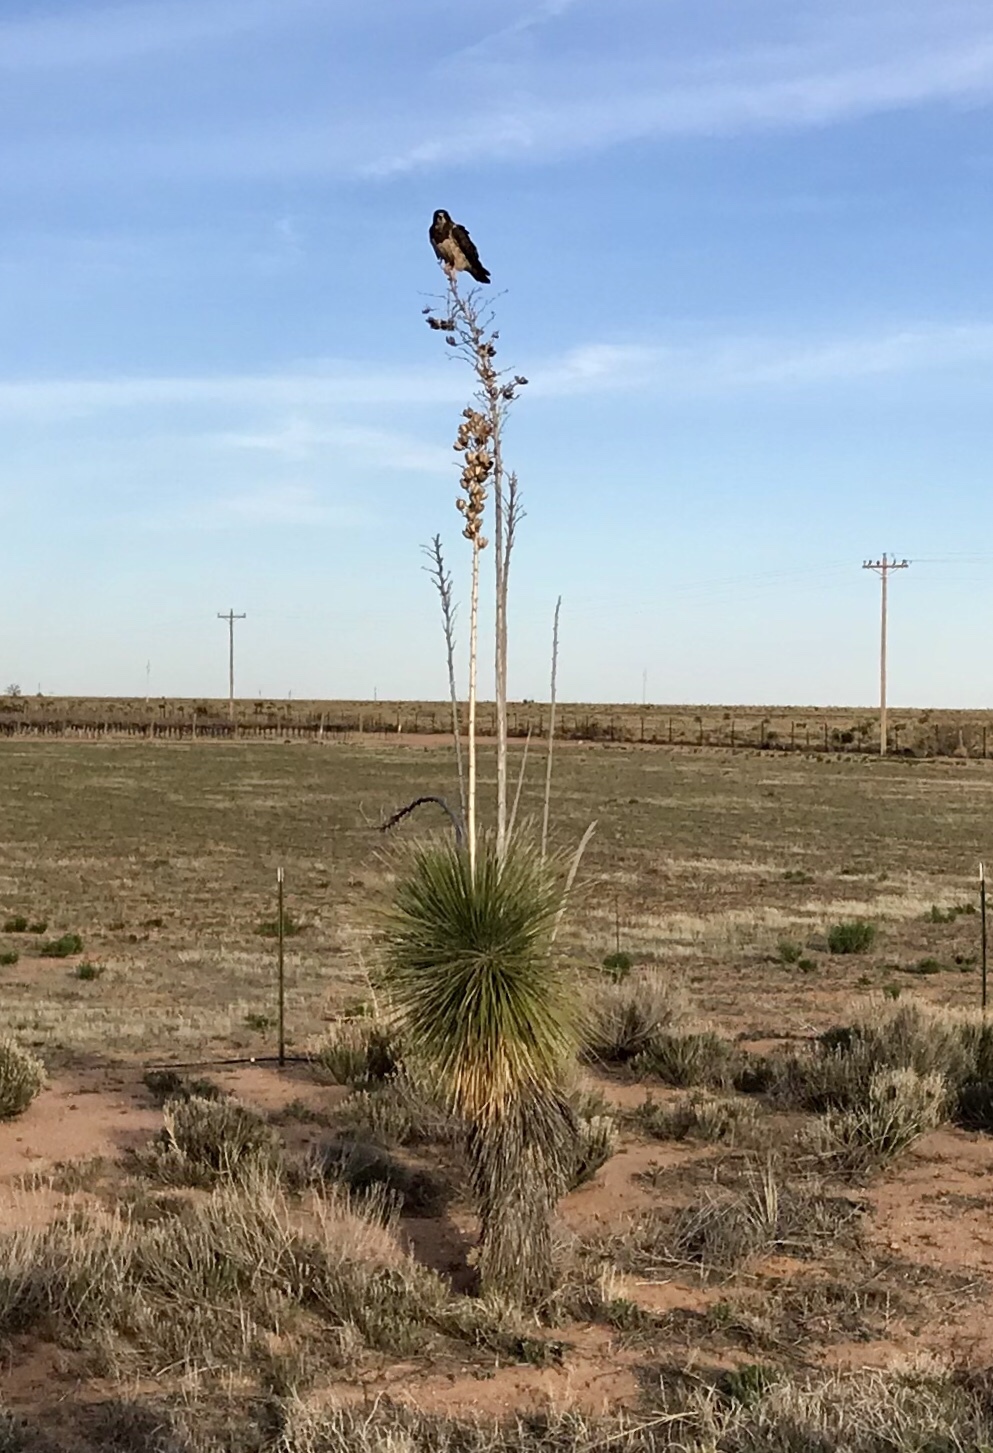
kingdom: Plantae
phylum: Tracheophyta
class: Liliopsida
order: Asparagales
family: Asparagaceae
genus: Yucca
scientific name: Yucca elata
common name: Palmella
